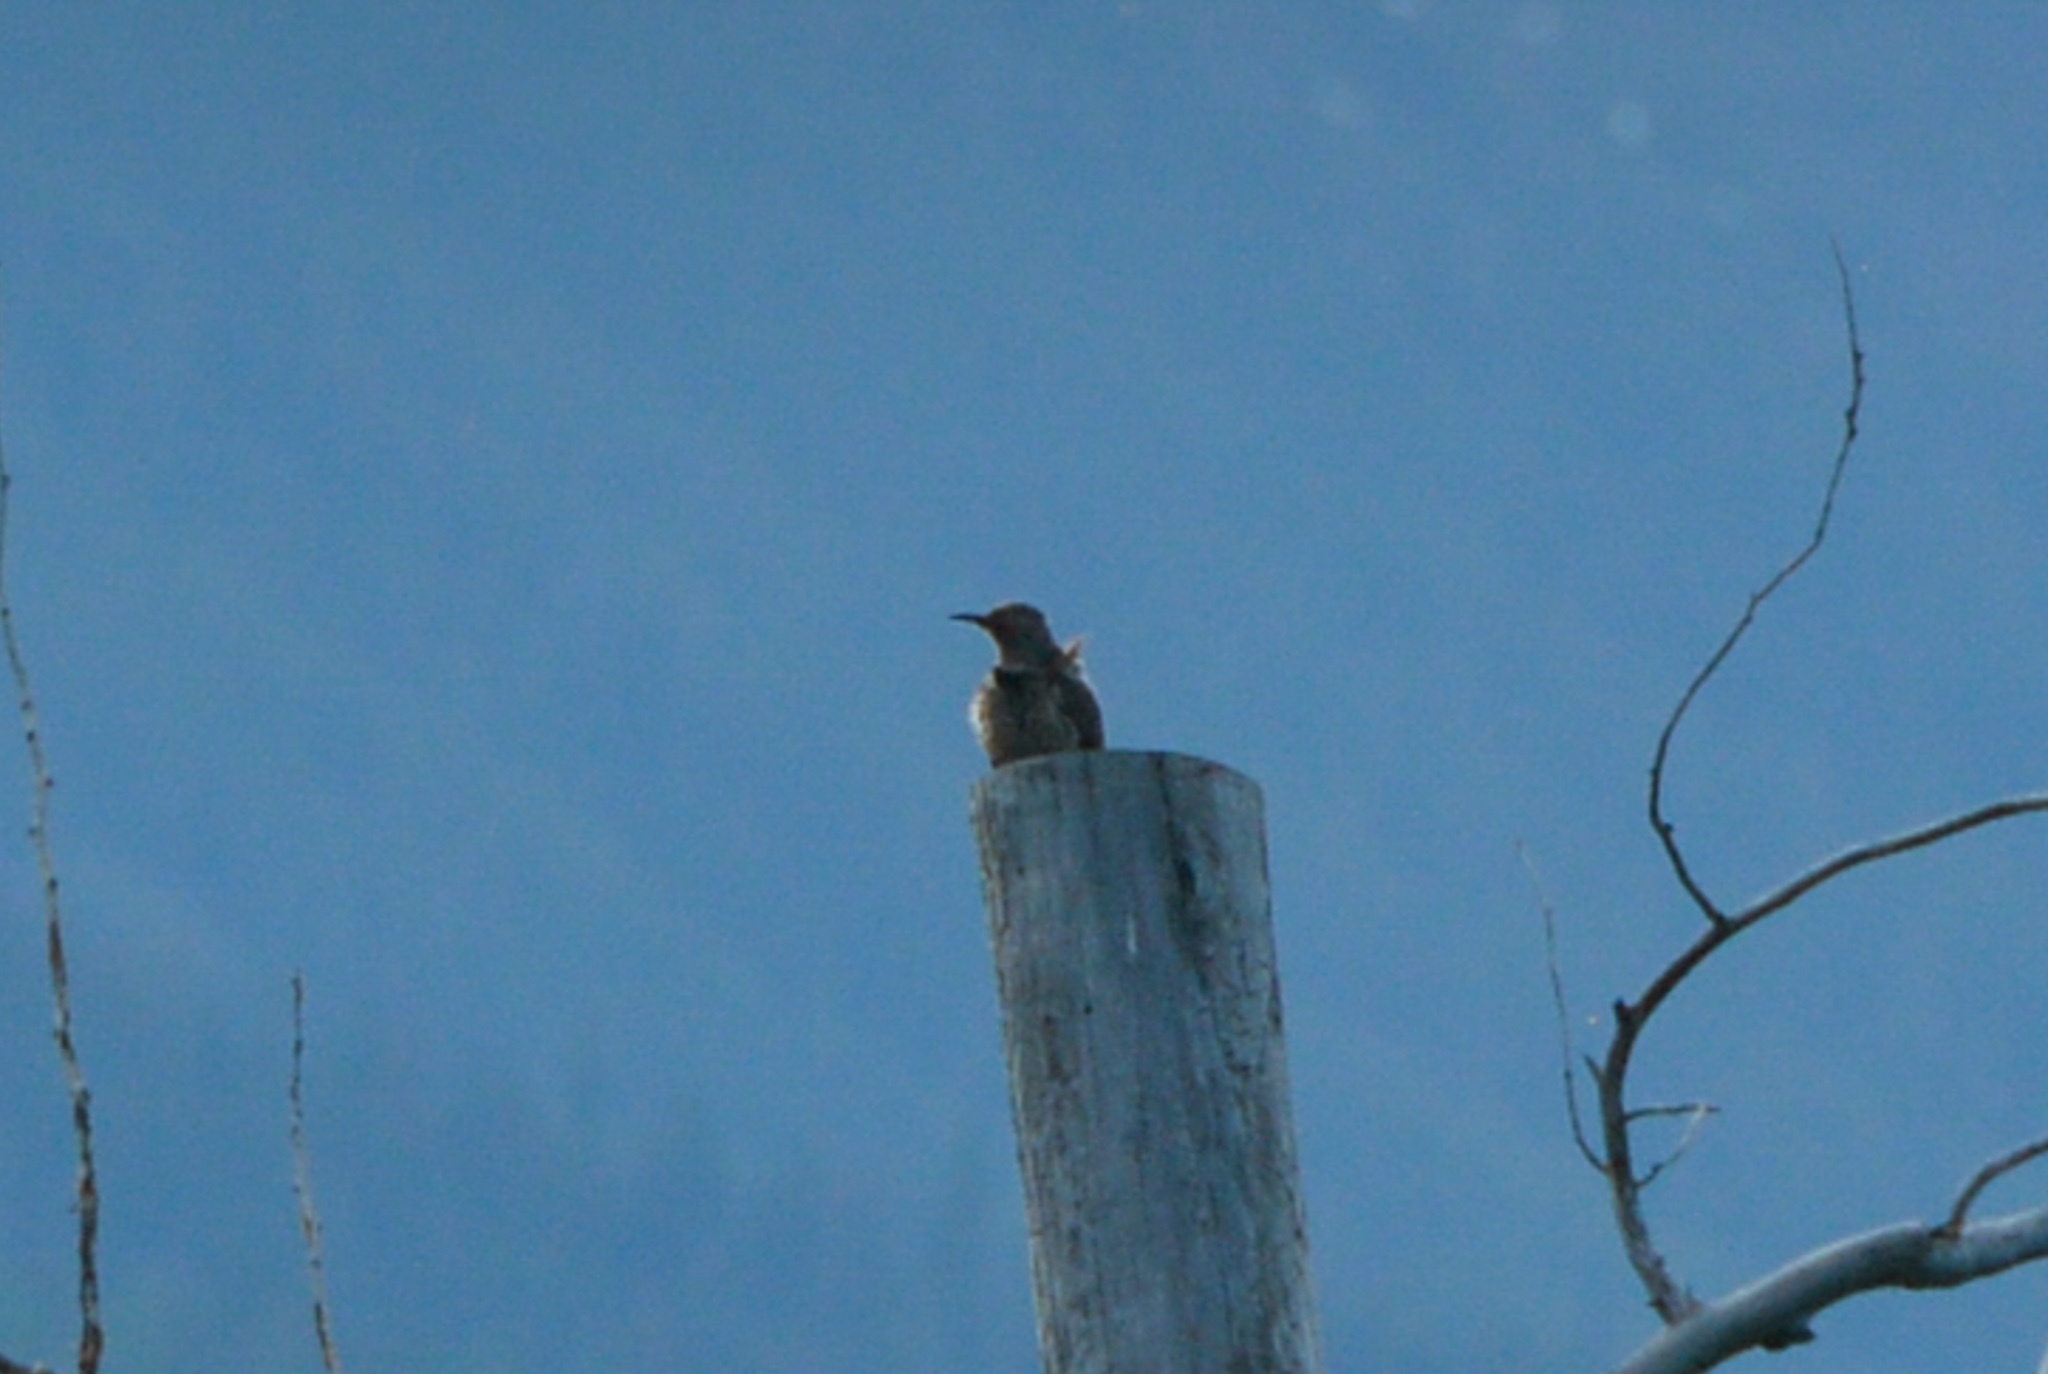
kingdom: Animalia
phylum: Chordata
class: Aves
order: Piciformes
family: Picidae
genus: Colaptes
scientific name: Colaptes auratus
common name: Northern flicker
